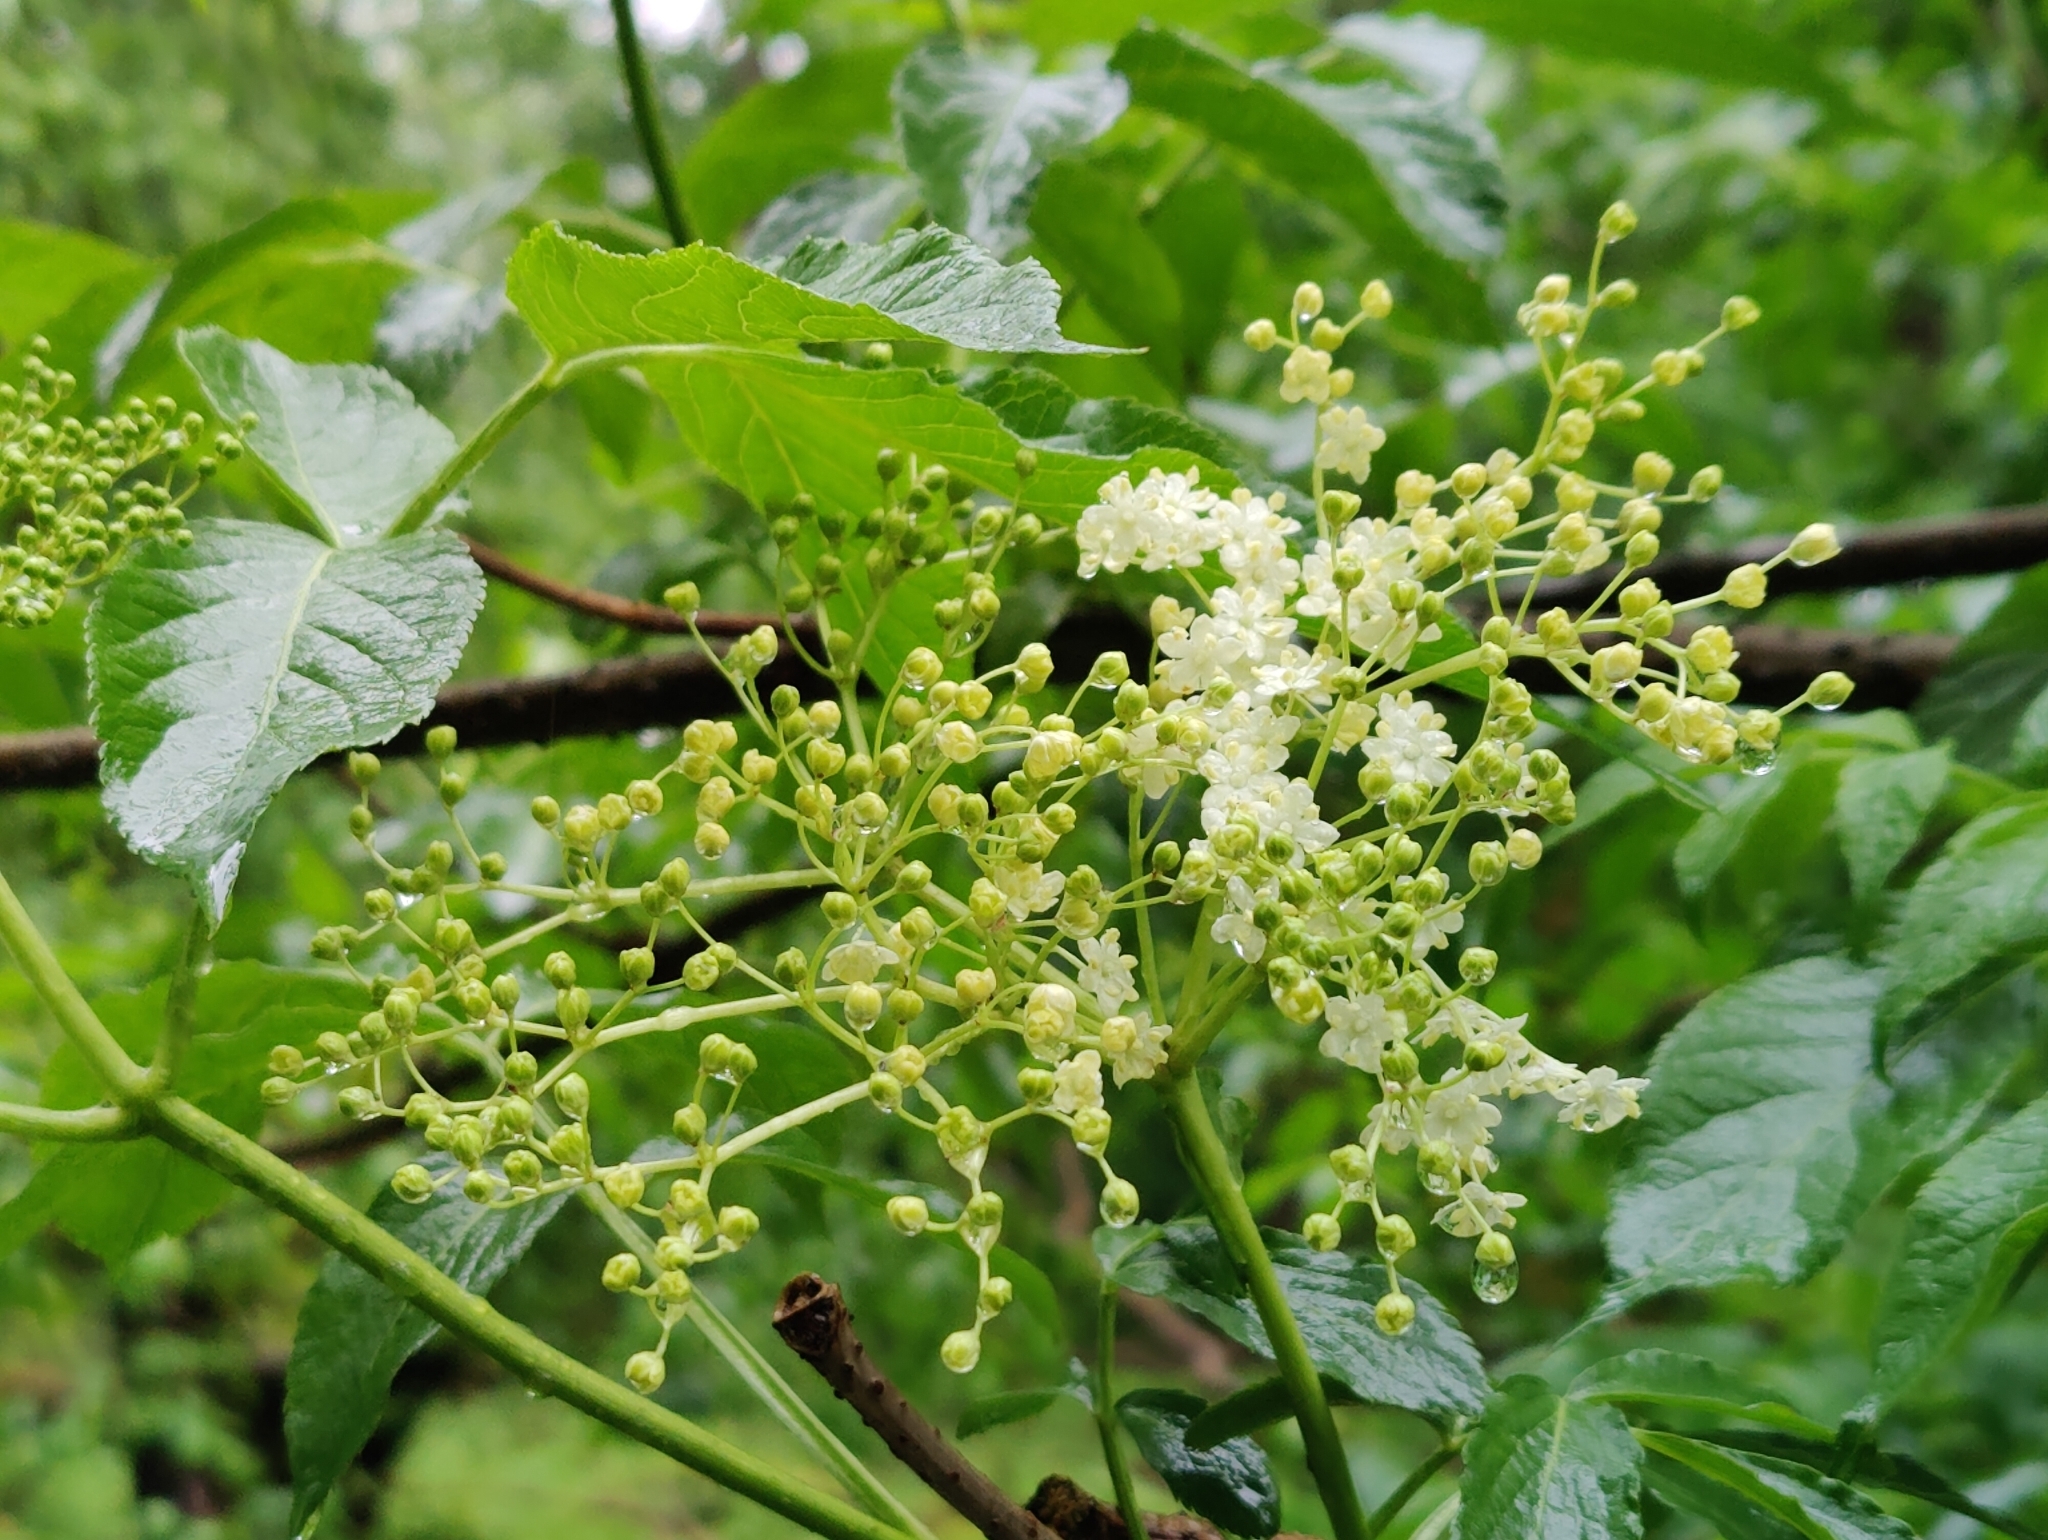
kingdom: Plantae
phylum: Tracheophyta
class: Magnoliopsida
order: Dipsacales
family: Viburnaceae
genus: Sambucus
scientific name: Sambucus nigra
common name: Elder
